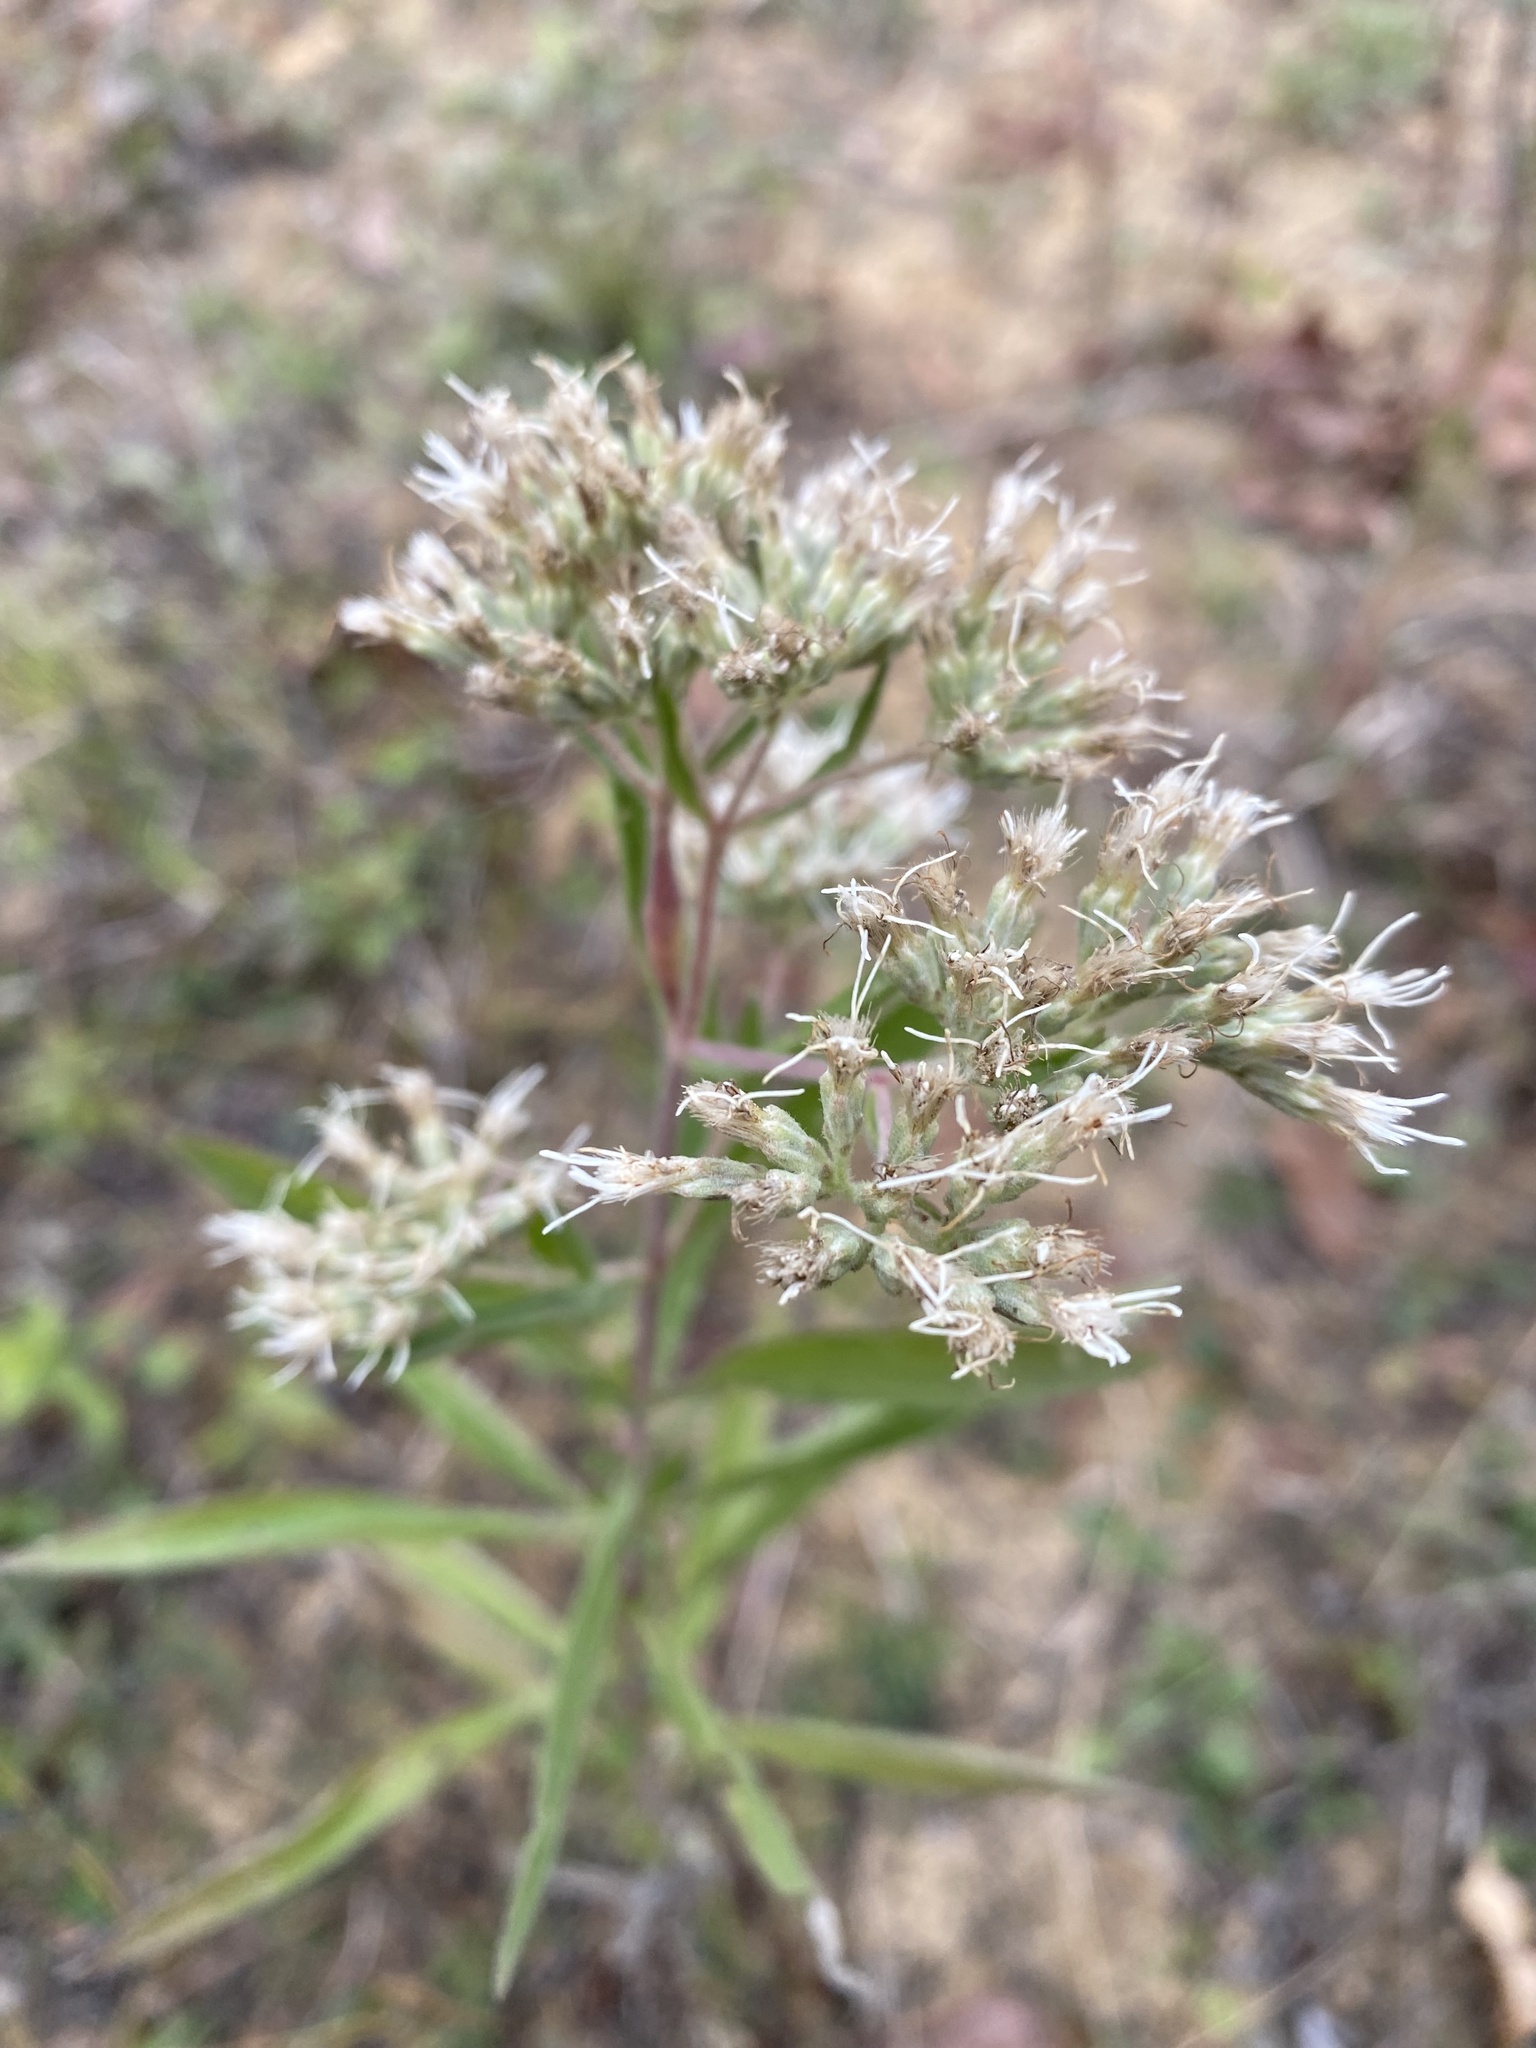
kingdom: Plantae
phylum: Tracheophyta
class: Magnoliopsida
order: Asterales
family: Asteraceae
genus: Eupatorium
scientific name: Eupatorium altissimum
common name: Tall thoroughwort
